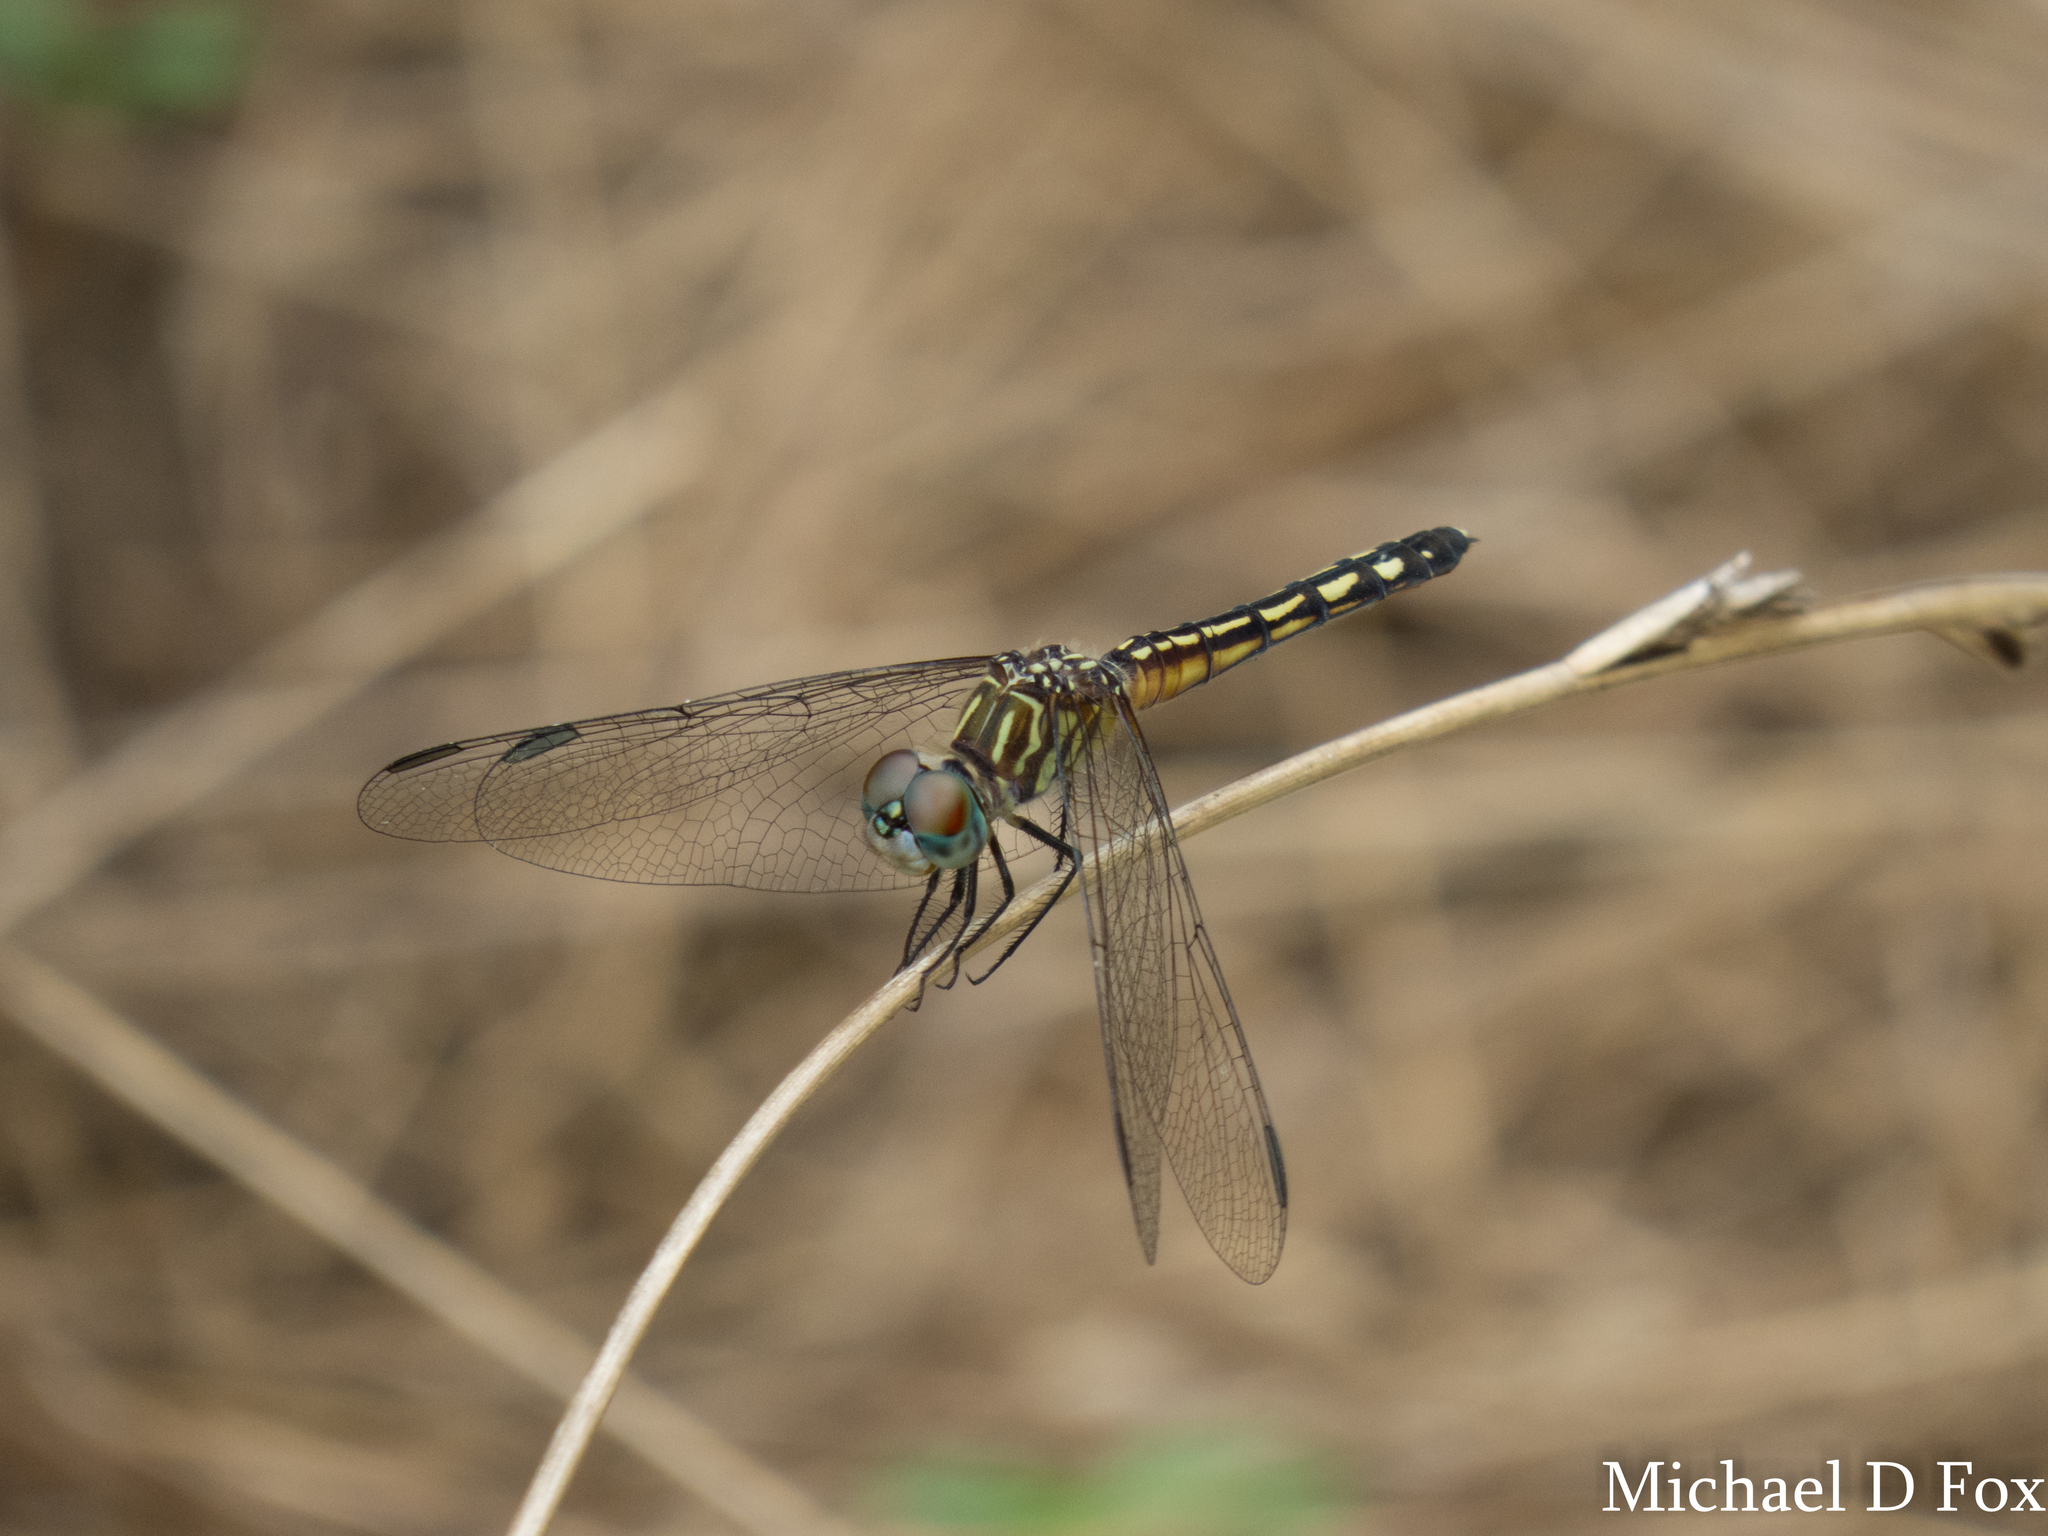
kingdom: Animalia
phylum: Arthropoda
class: Insecta
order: Odonata
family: Libellulidae
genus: Pachydiplax
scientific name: Pachydiplax longipennis
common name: Blue dasher
